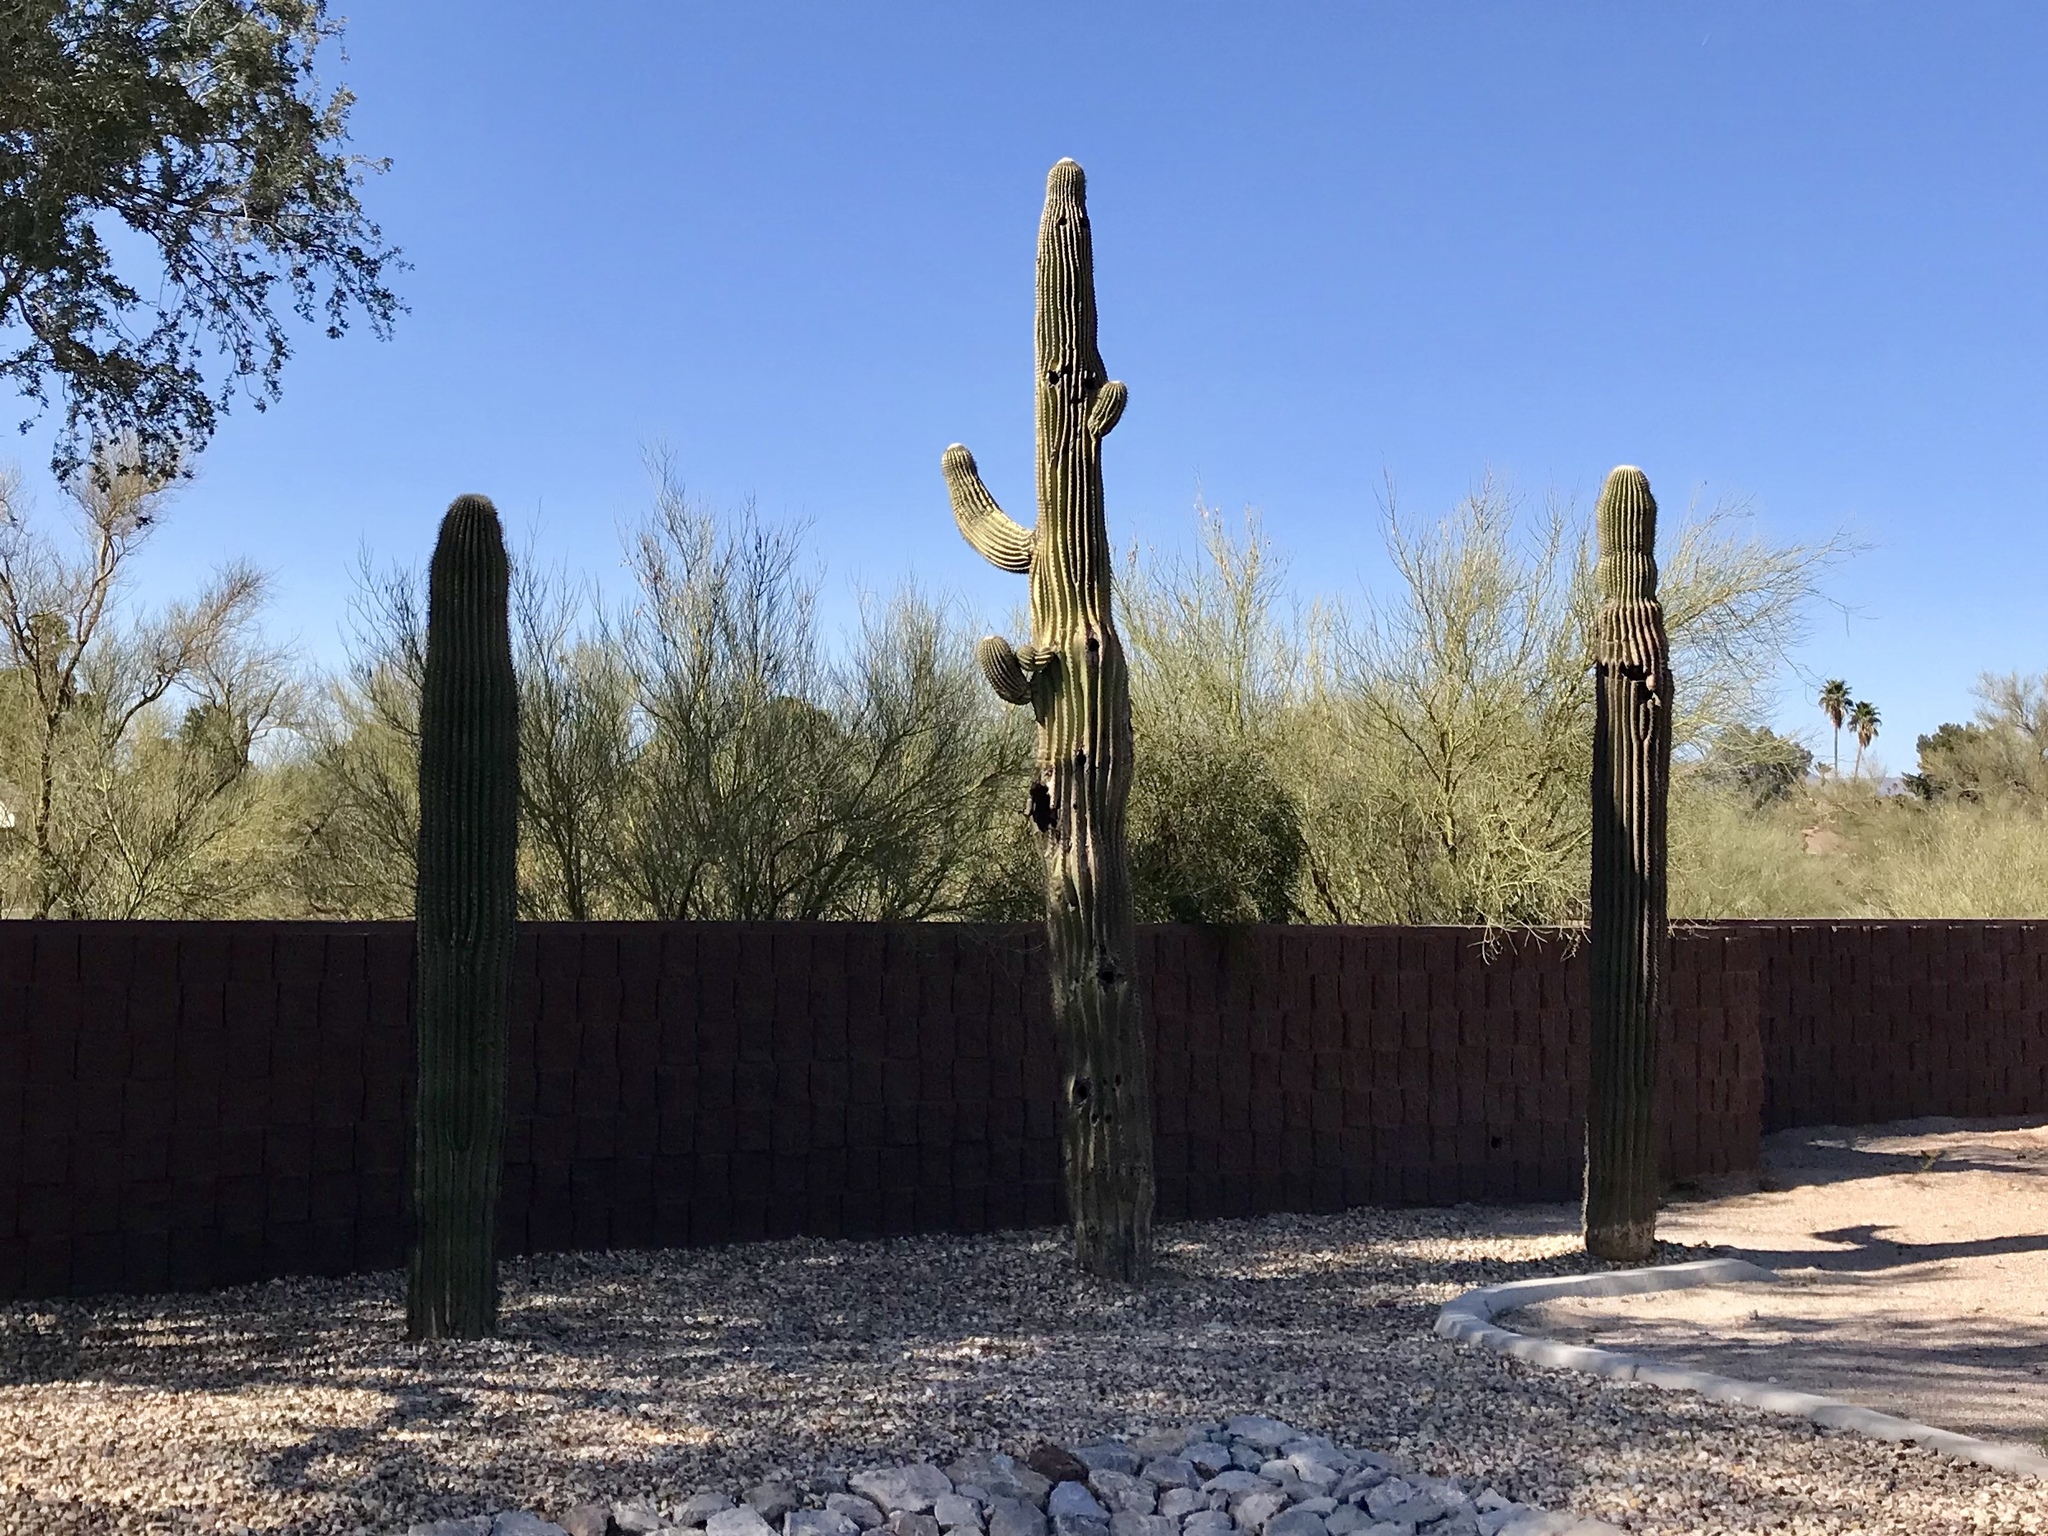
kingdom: Plantae
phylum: Tracheophyta
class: Magnoliopsida
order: Caryophyllales
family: Cactaceae
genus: Carnegiea
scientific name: Carnegiea gigantea
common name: Saguaro
